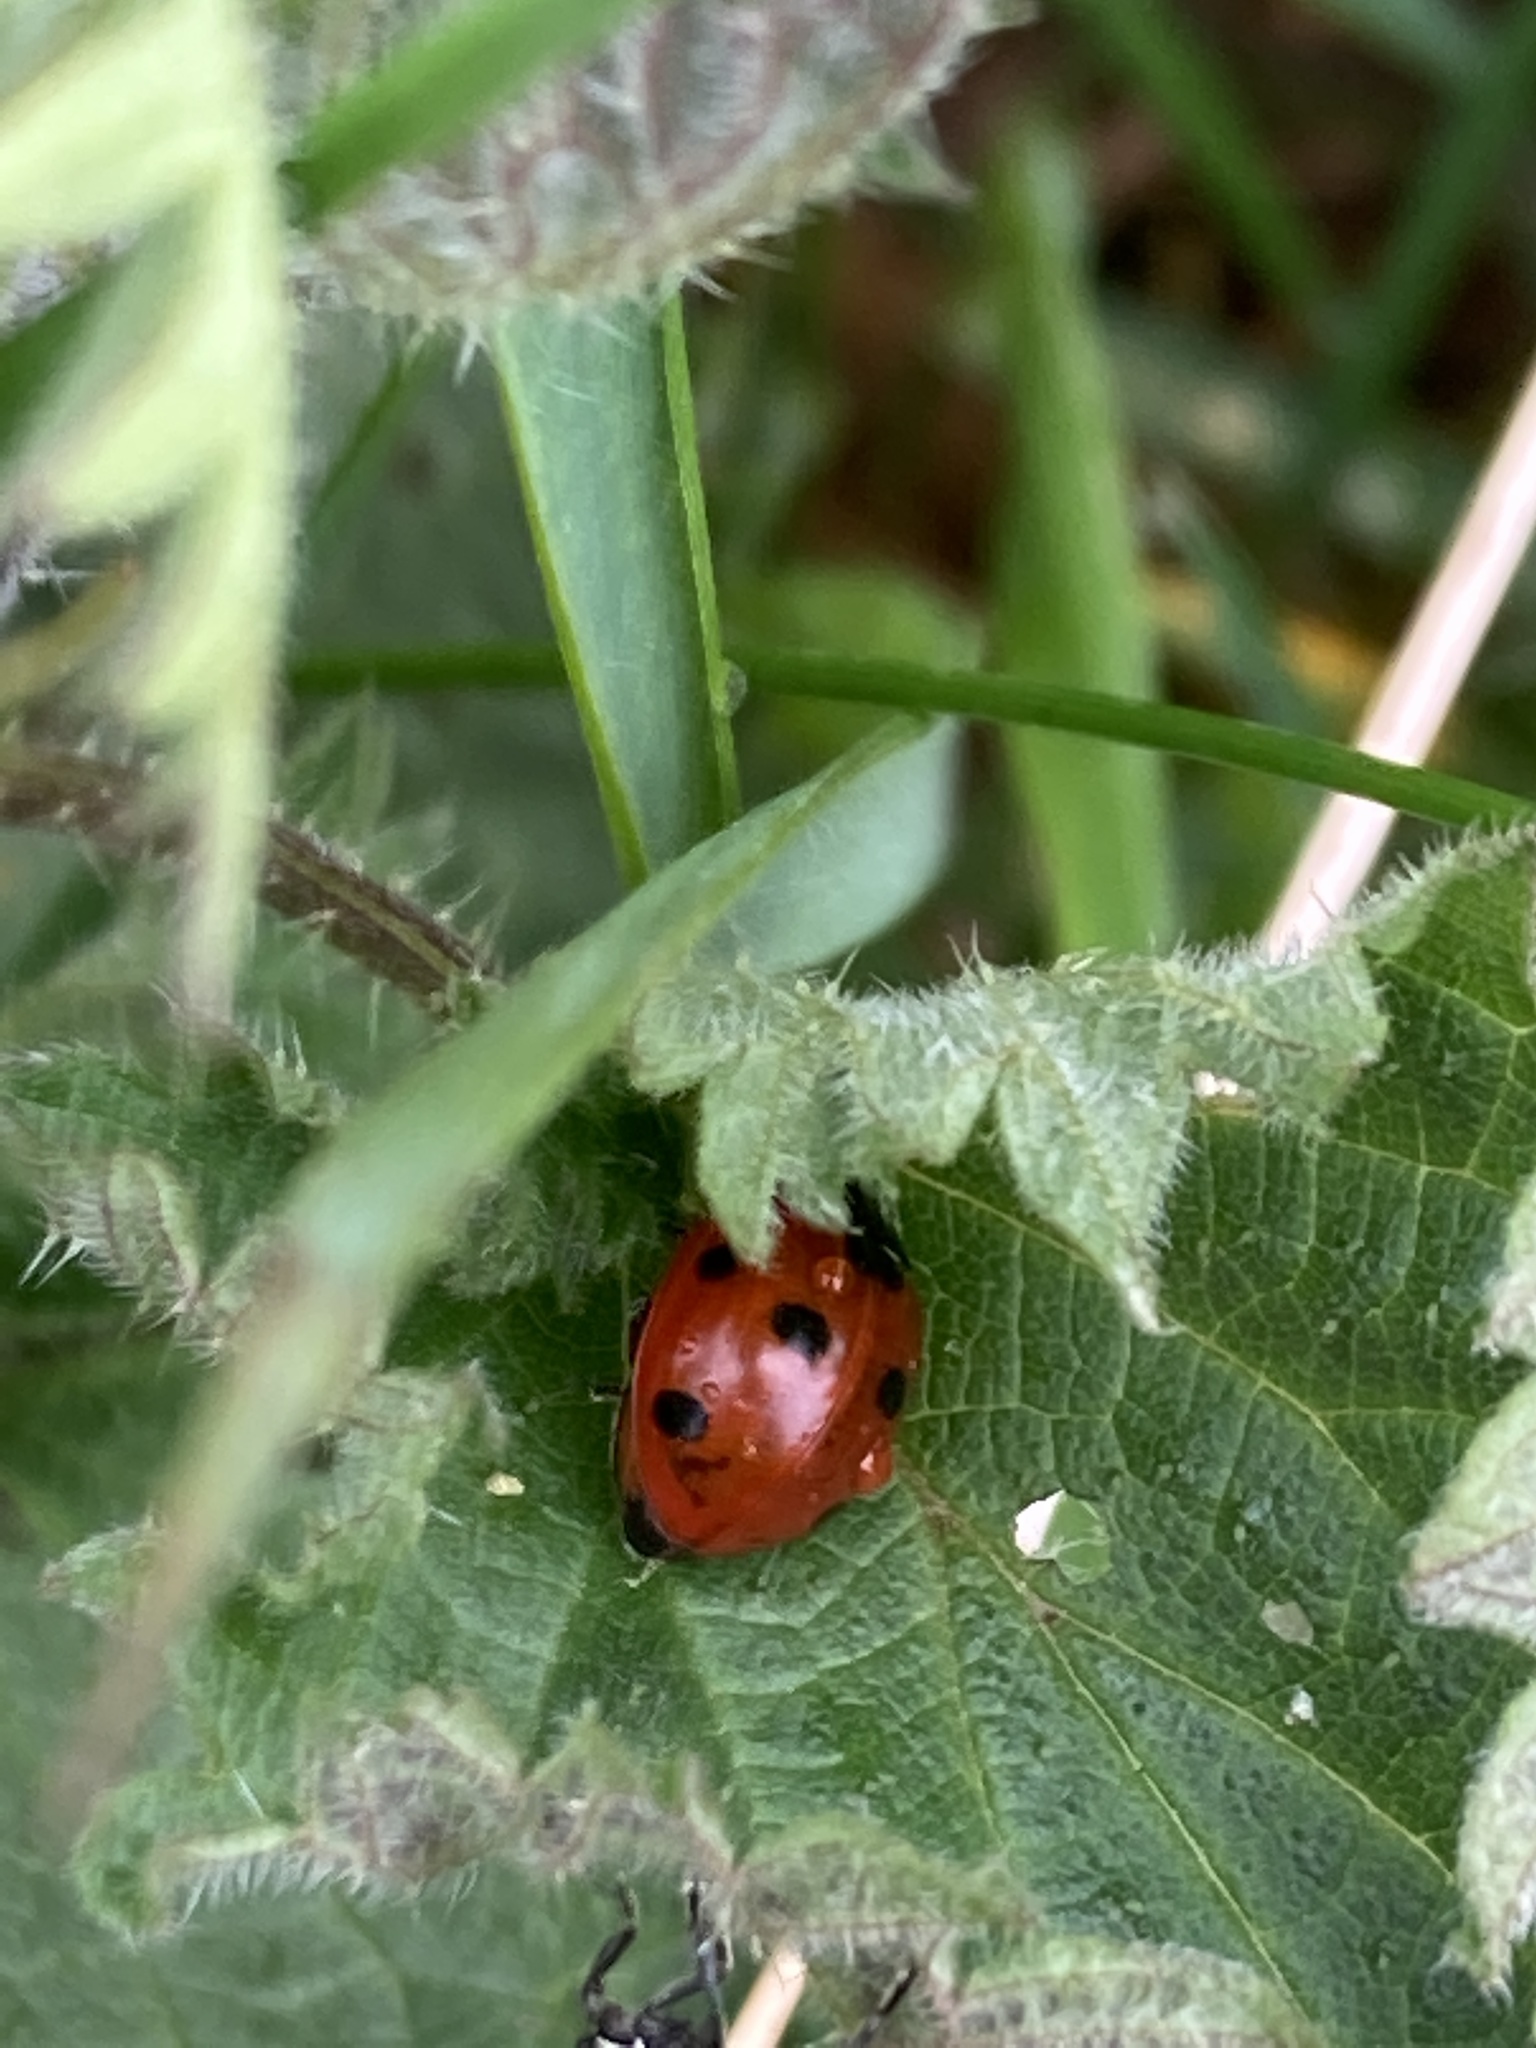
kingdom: Animalia
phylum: Arthropoda
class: Insecta
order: Coleoptera
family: Coccinellidae
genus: Coccinella
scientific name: Coccinella septempunctata
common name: Sevenspotted lady beetle
